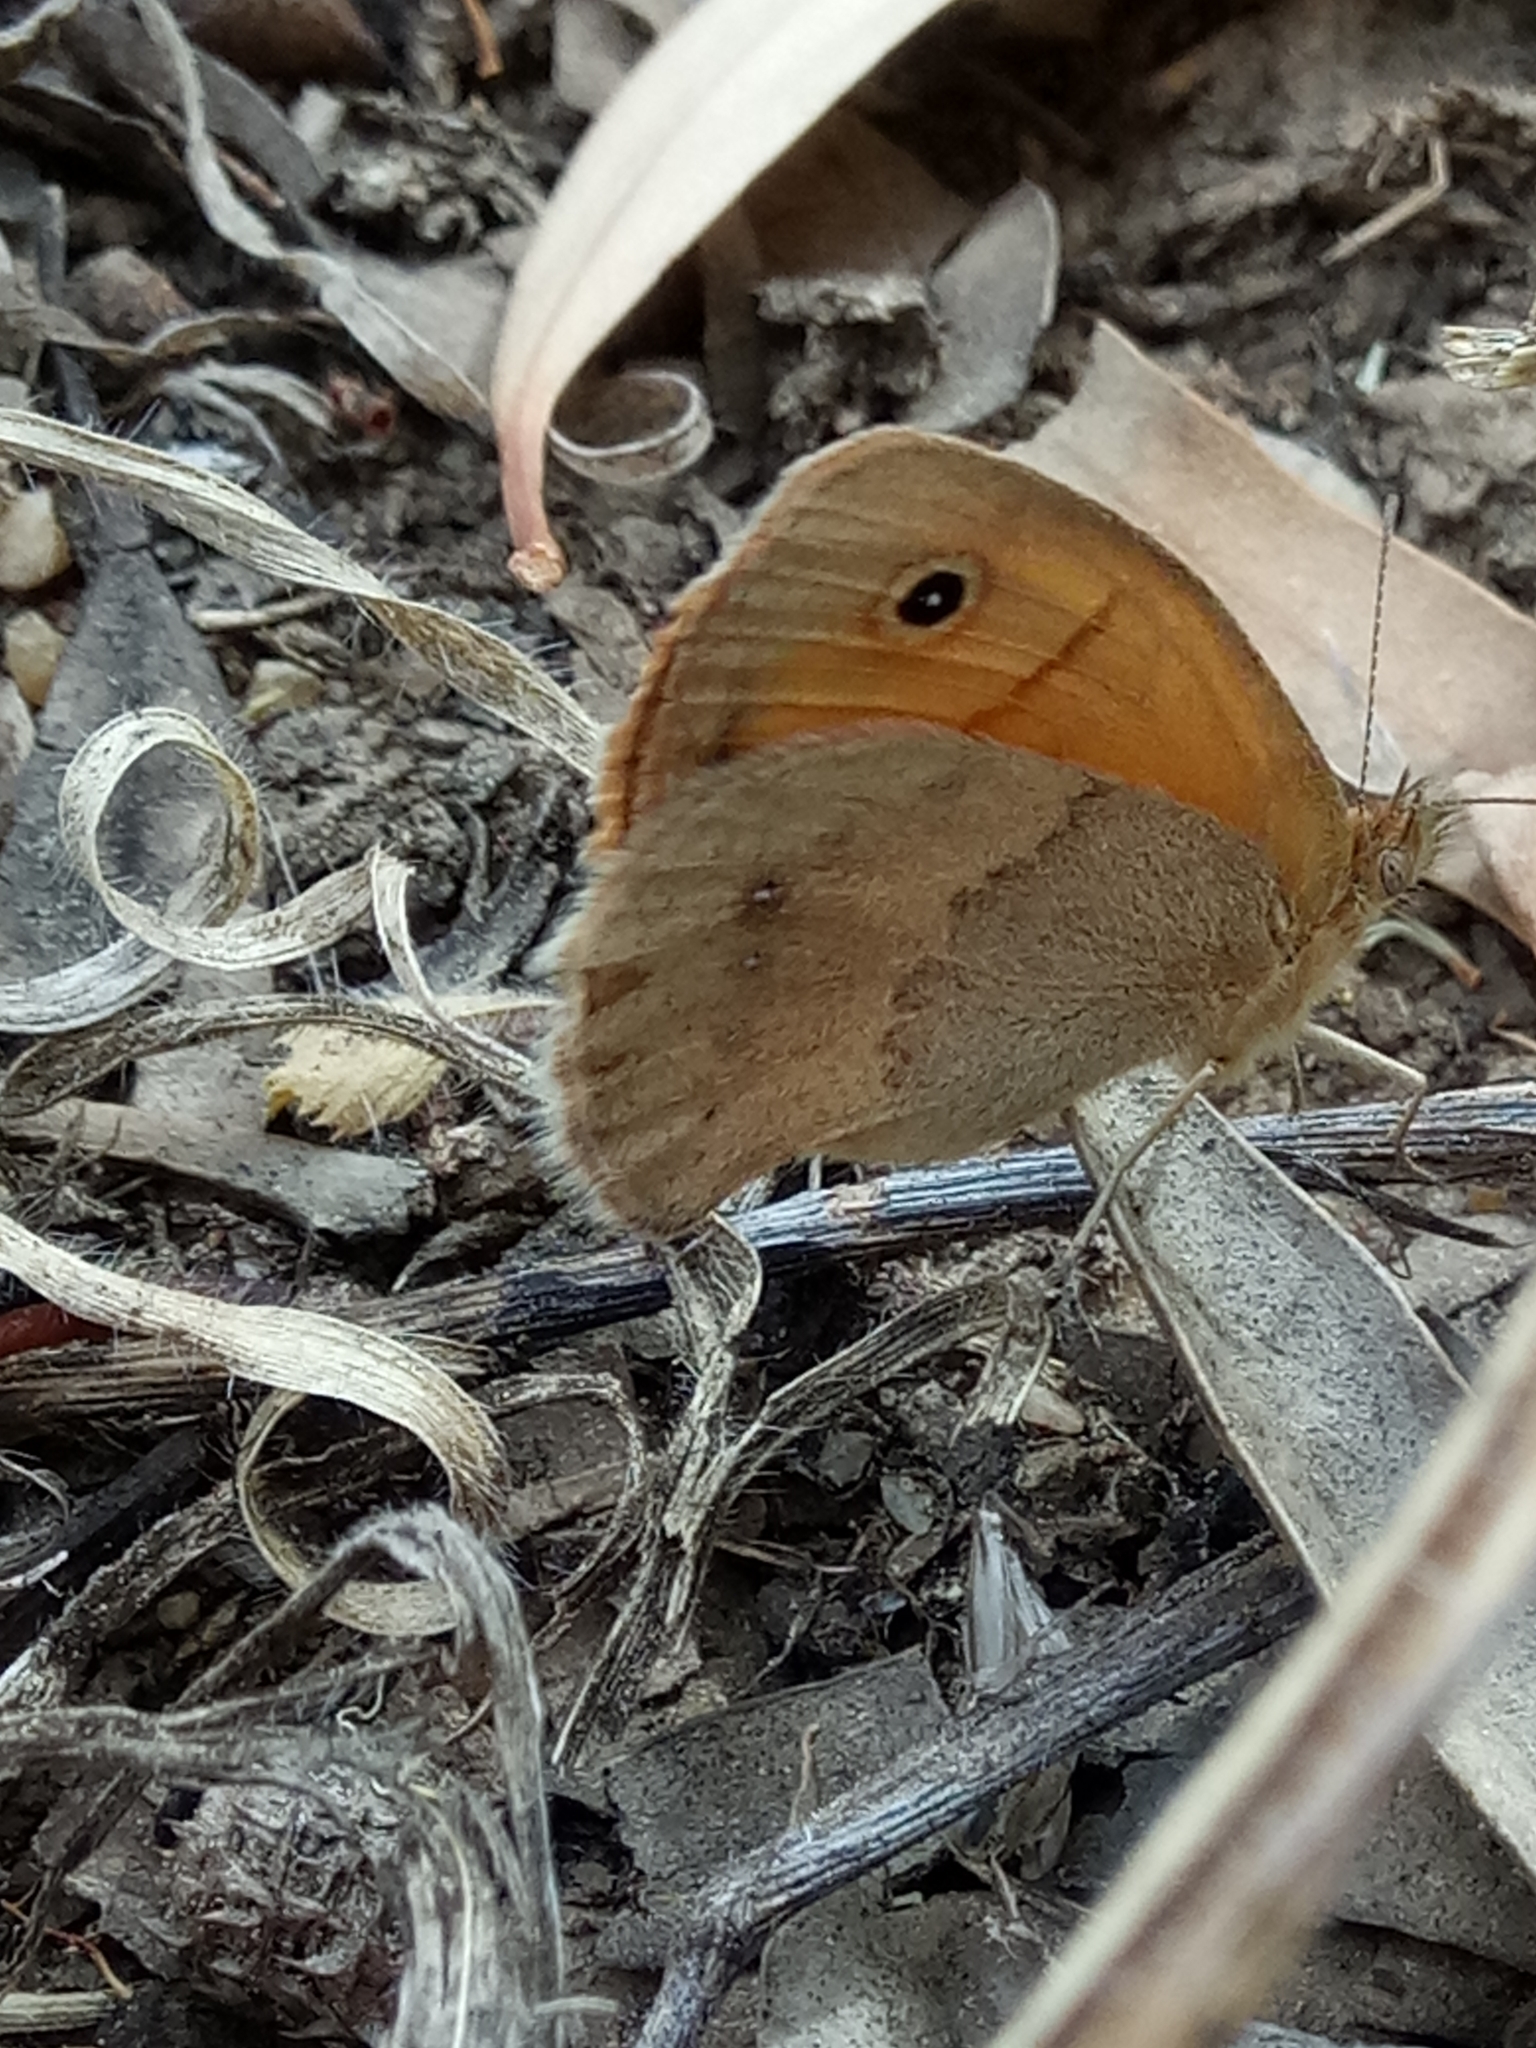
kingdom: Animalia
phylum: Arthropoda
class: Insecta
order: Lepidoptera
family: Nymphalidae
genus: Coenonympha
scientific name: Coenonympha pamphilus
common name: Small heath
